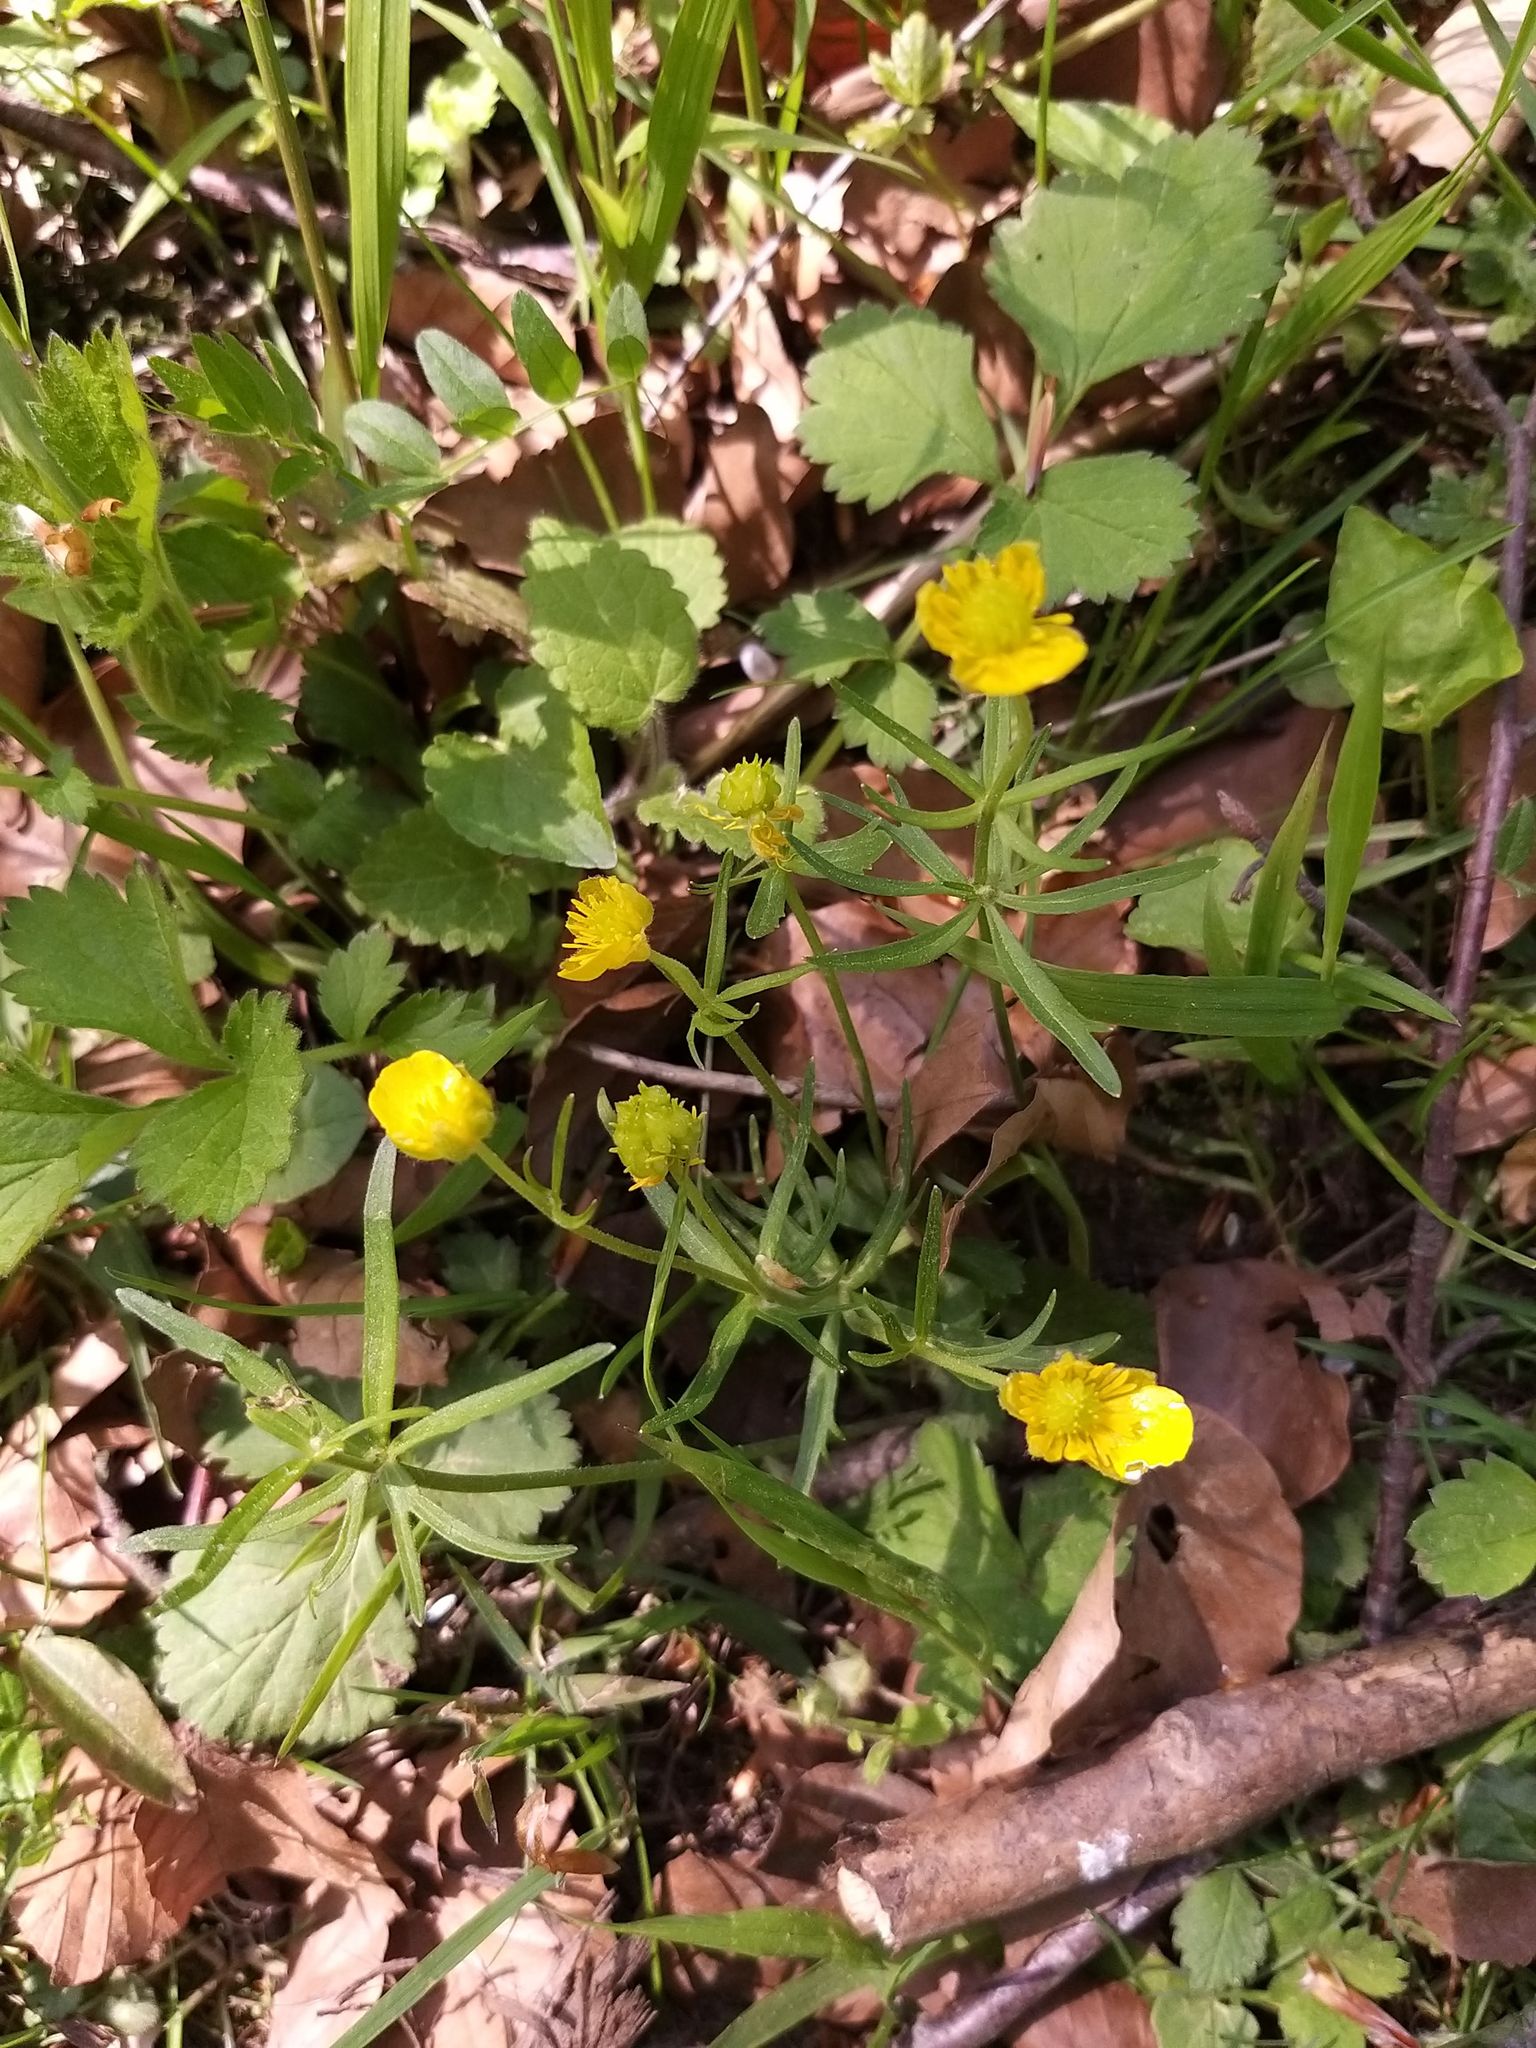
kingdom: Plantae
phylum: Tracheophyta
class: Magnoliopsida
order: Ranunculales
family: Ranunculaceae
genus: Ranunculus
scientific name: Ranunculus auricomus
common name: Goldilocks buttercup
